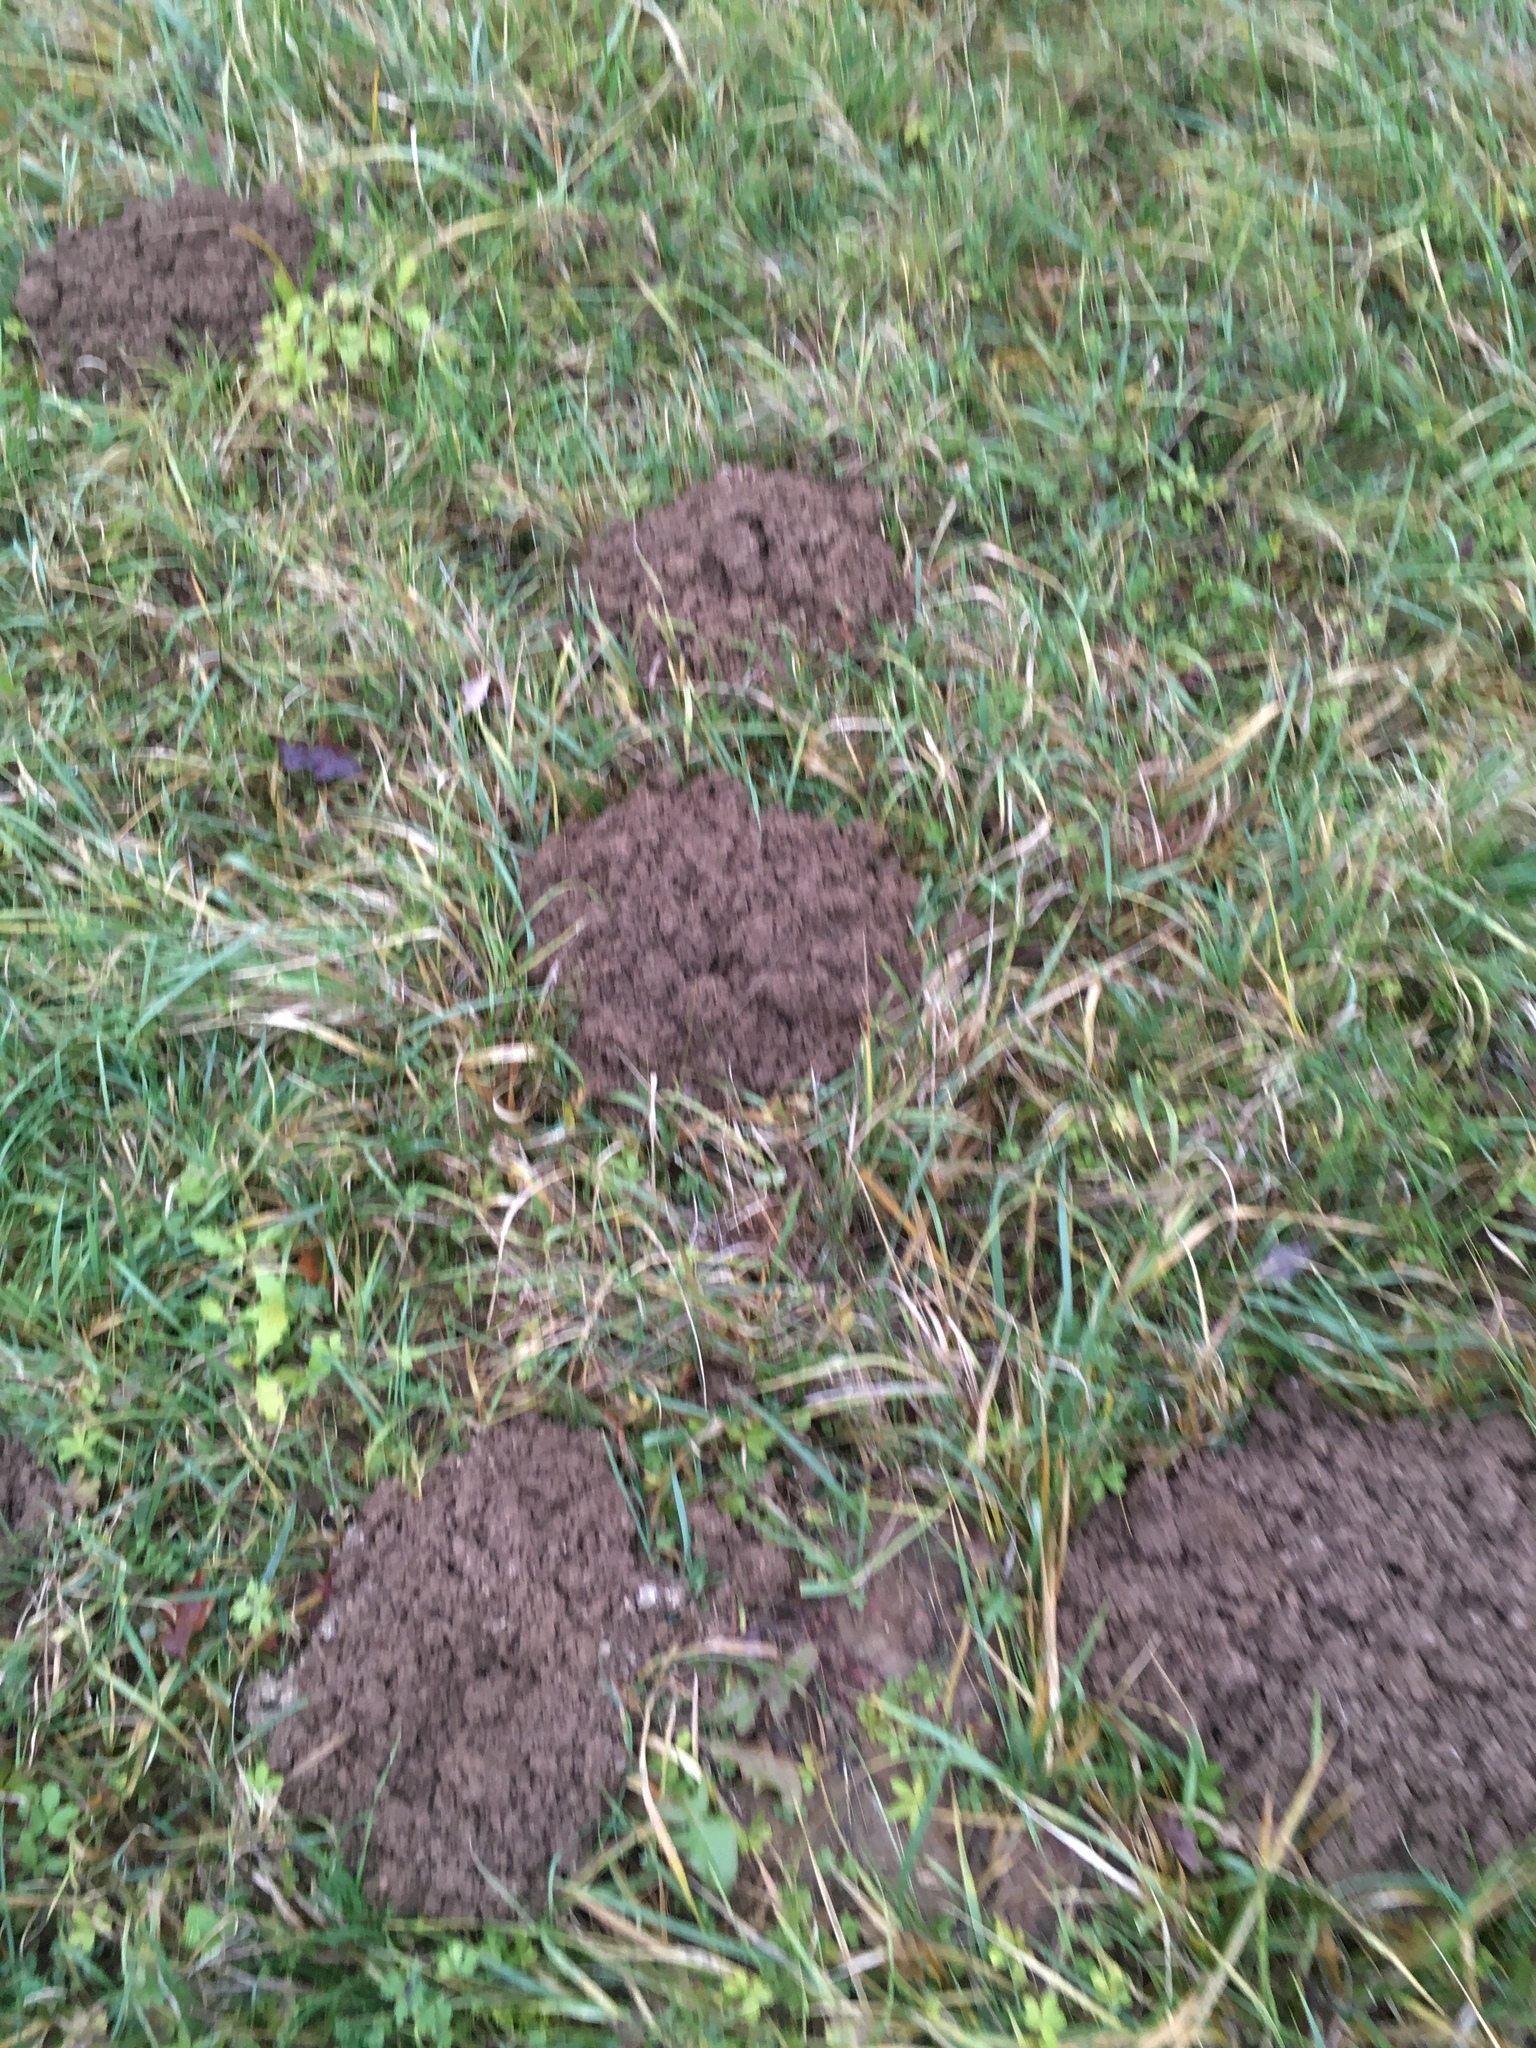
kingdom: Animalia
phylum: Chordata
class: Mammalia
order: Soricomorpha
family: Talpidae
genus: Talpa
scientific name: Talpa europaea
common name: European mole
